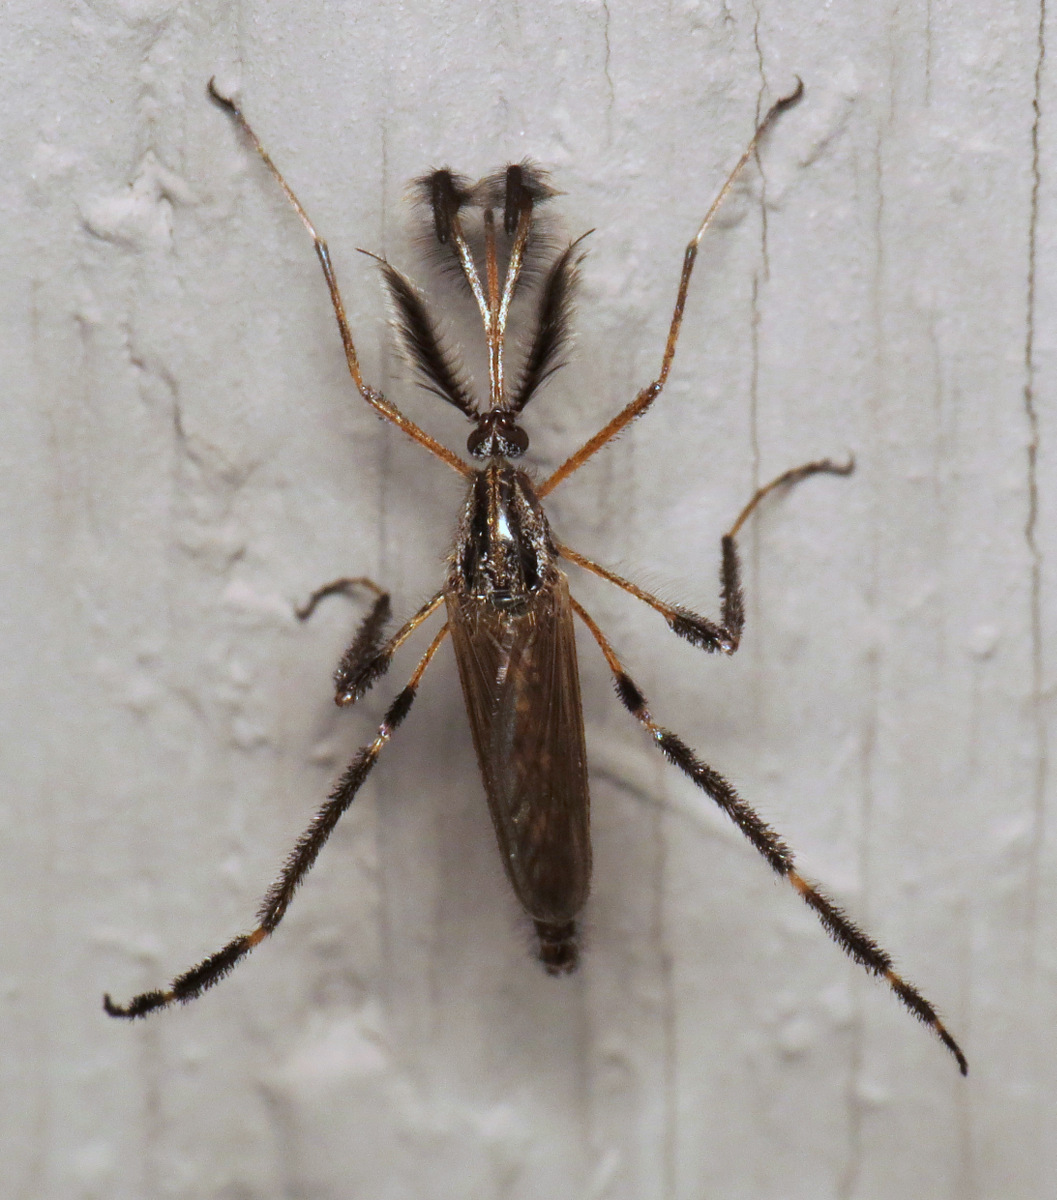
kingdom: Animalia
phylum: Arthropoda
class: Insecta
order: Diptera
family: Culicidae
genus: Psorophora
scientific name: Psorophora ciliata
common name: Gallinipper
